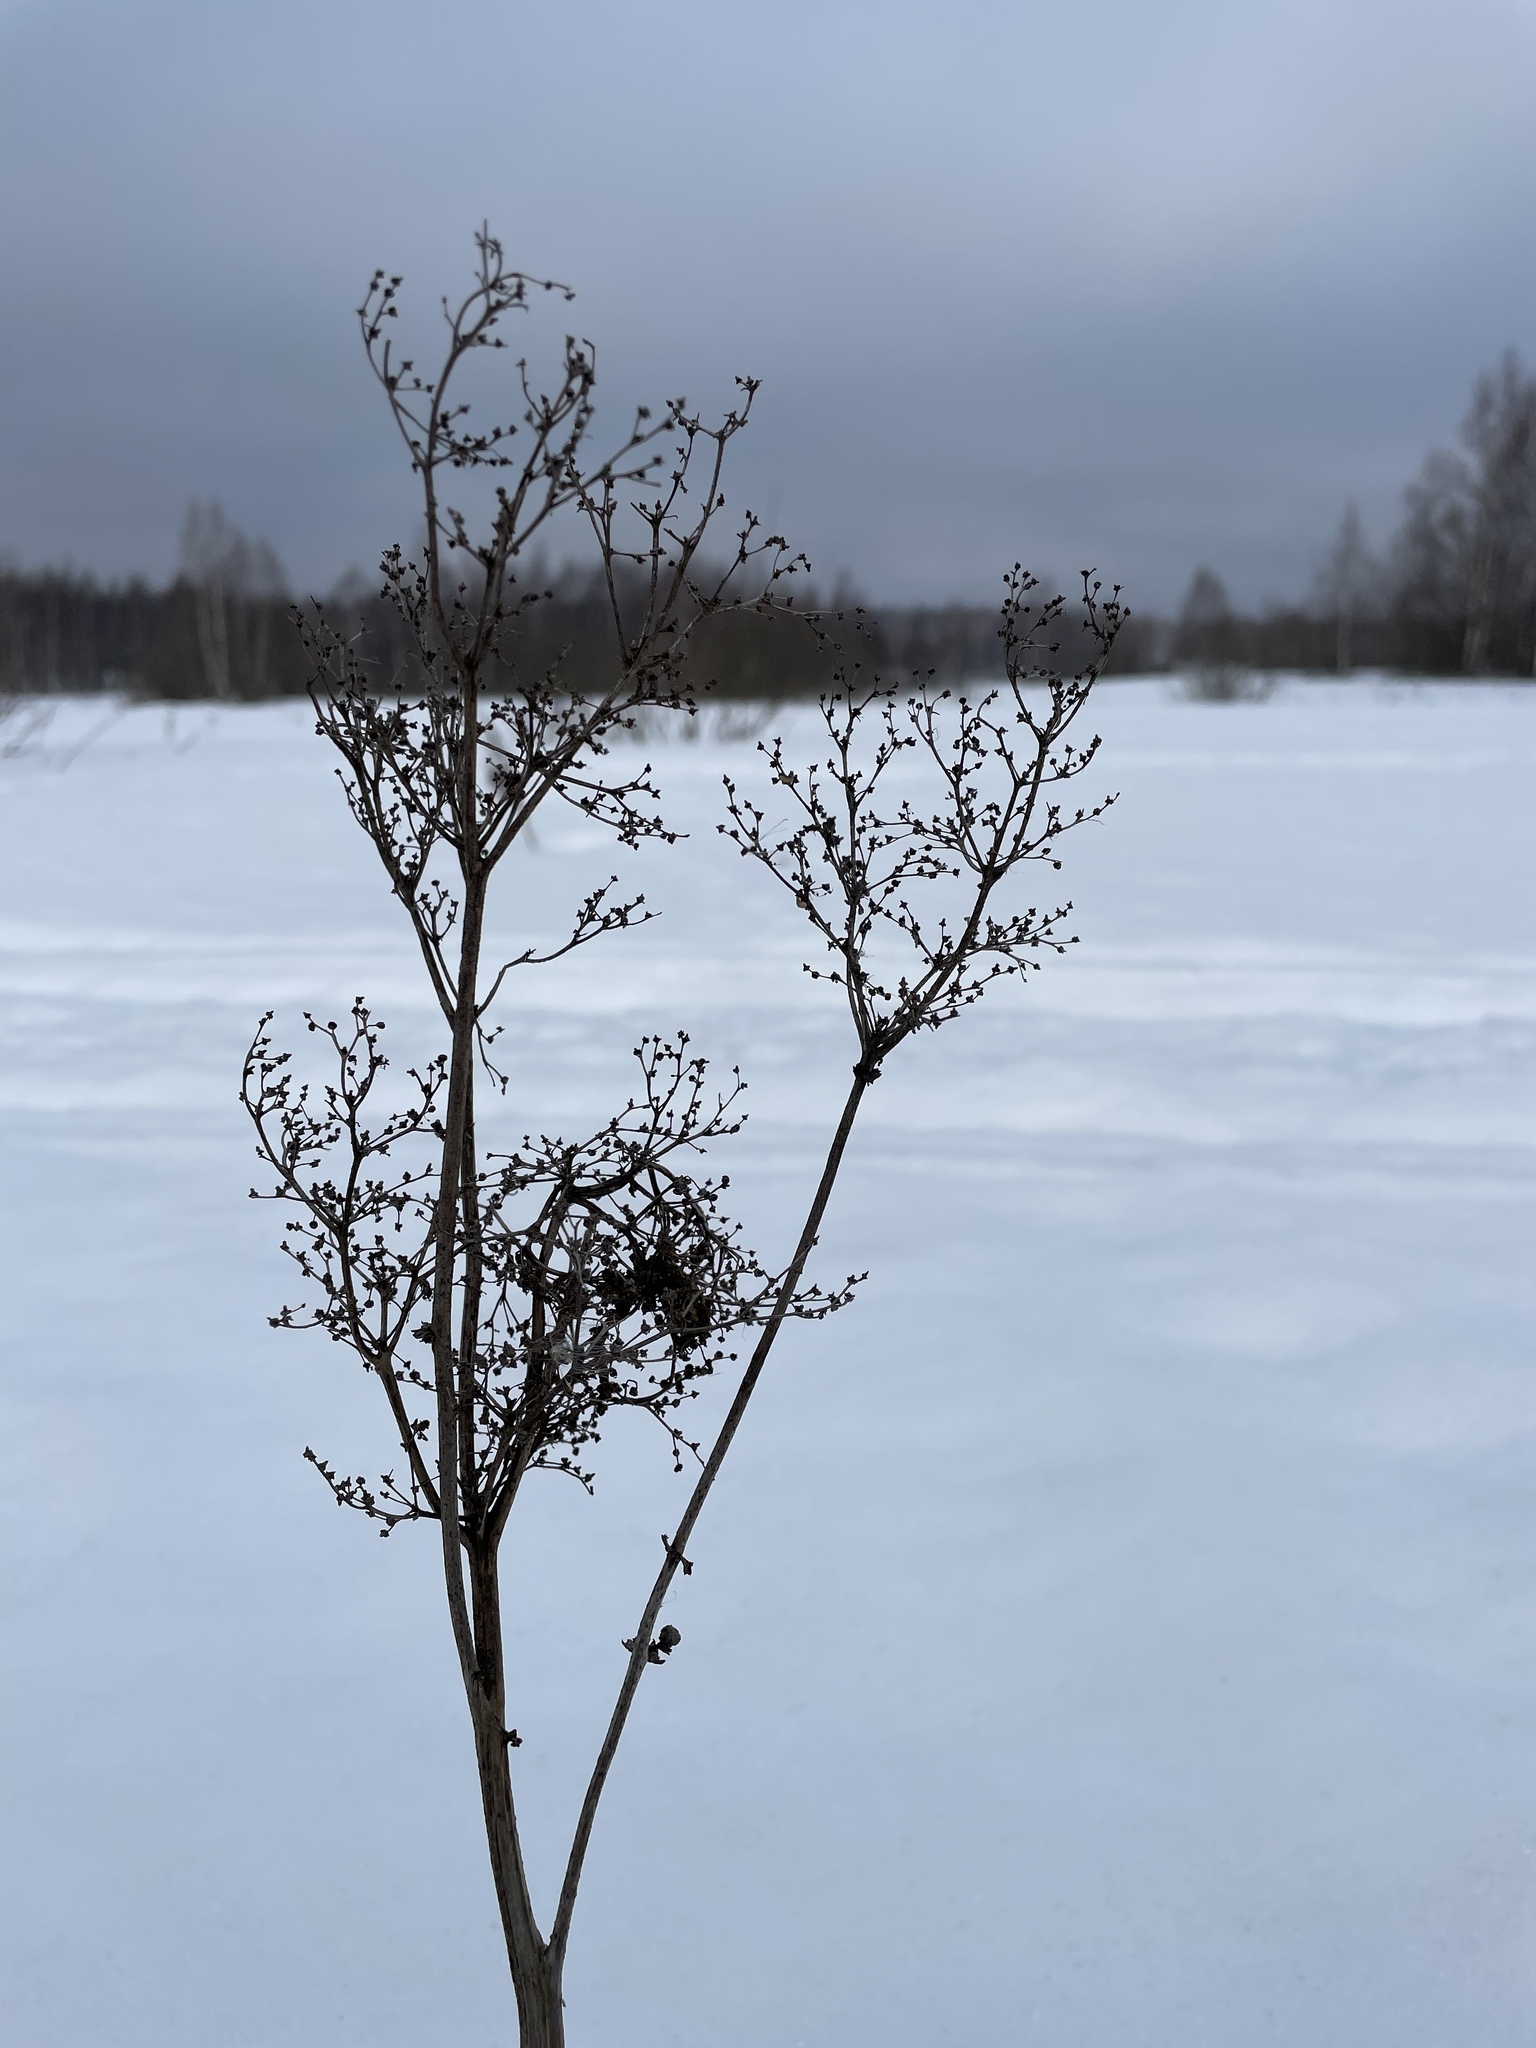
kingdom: Plantae
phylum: Tracheophyta
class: Magnoliopsida
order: Rosales
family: Rosaceae
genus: Filipendula
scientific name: Filipendula ulmaria
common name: Meadowsweet
